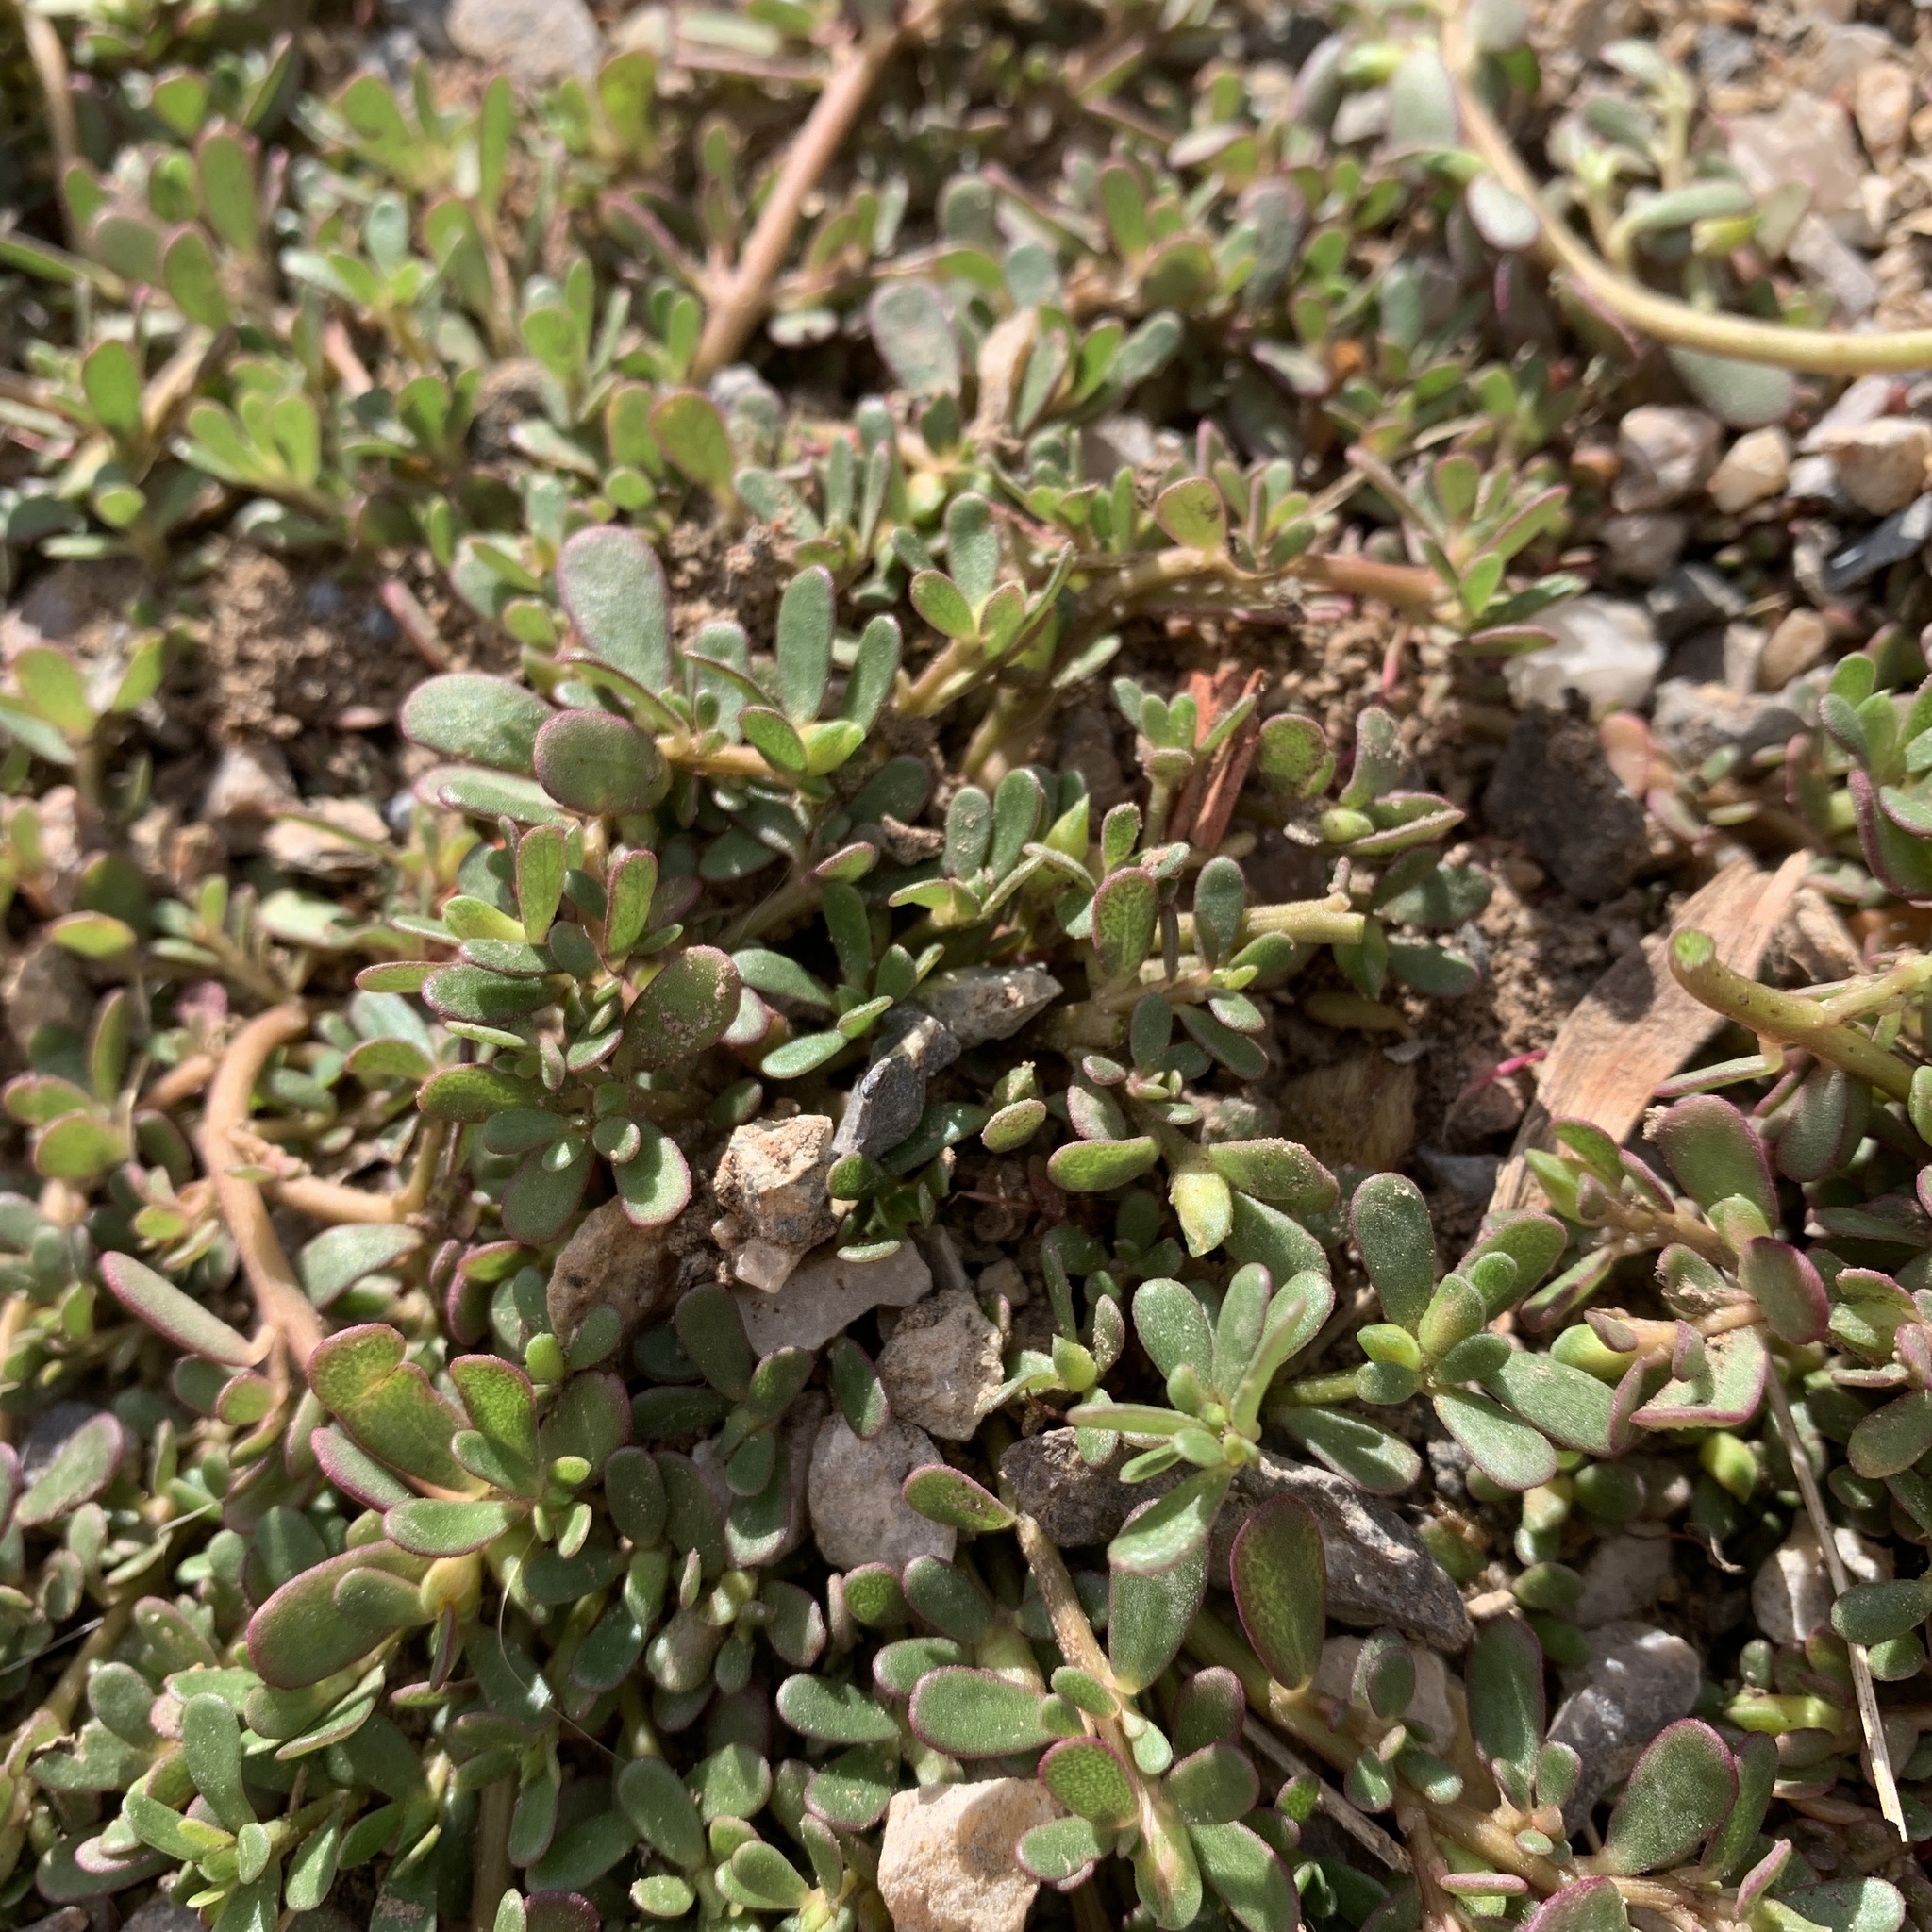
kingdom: Plantae
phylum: Tracheophyta
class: Magnoliopsida
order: Caryophyllales
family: Portulacaceae
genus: Portulaca
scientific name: Portulaca oleracea
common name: Common purslane
